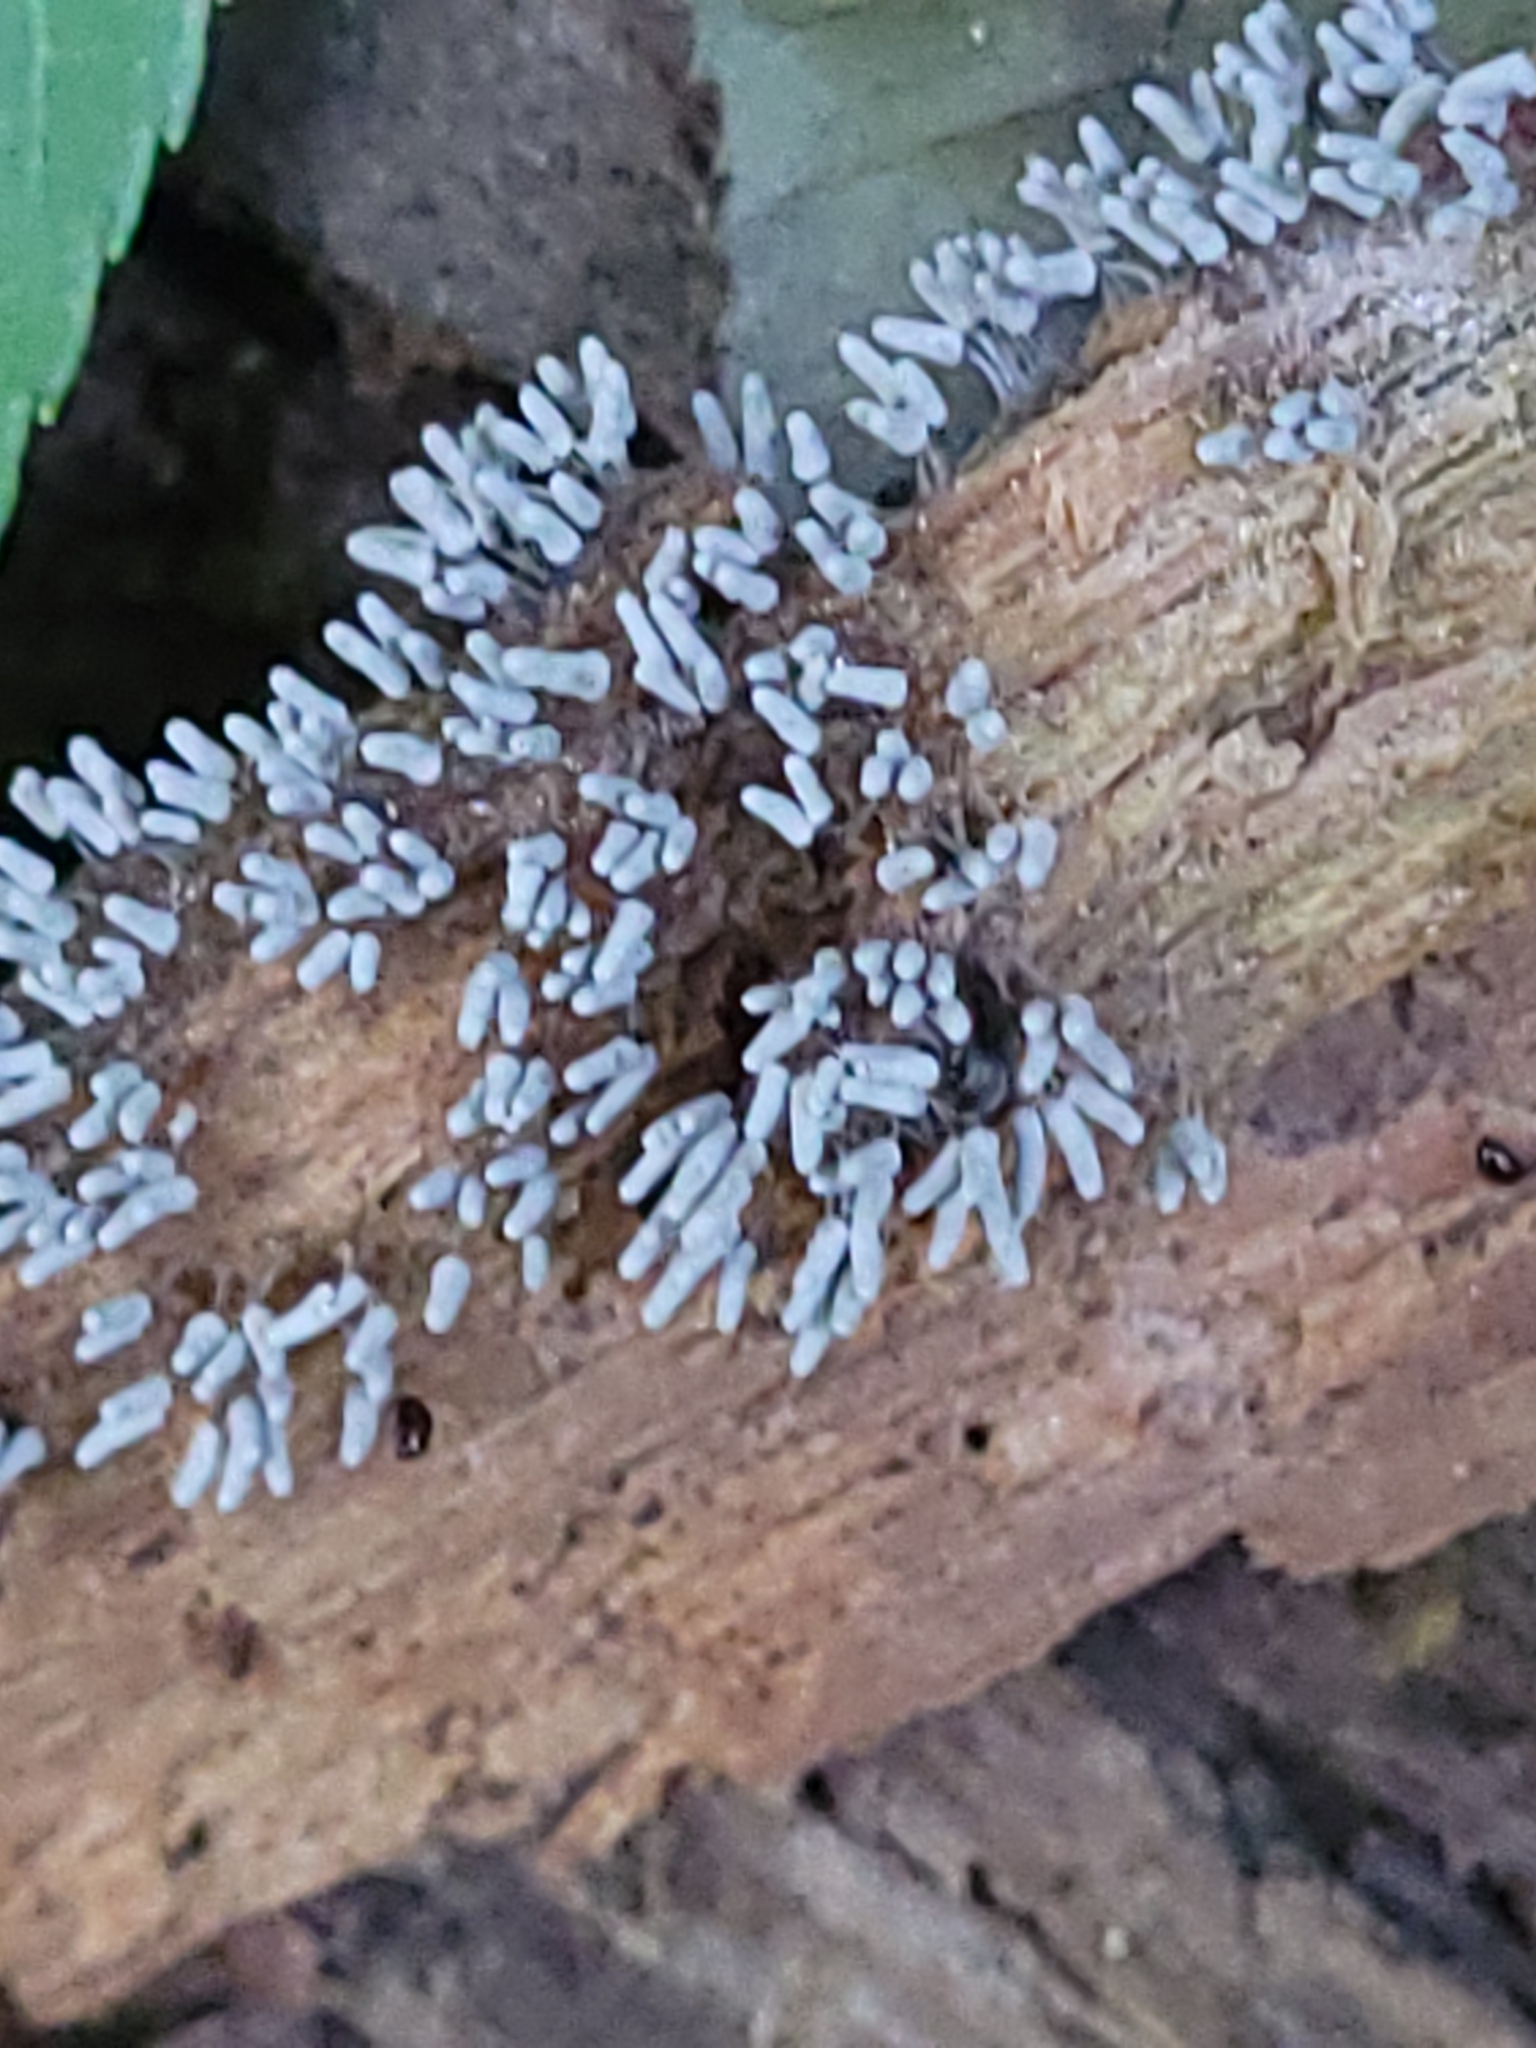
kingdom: Protozoa
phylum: Mycetozoa
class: Myxomycetes
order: Trichiales
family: Arcyriaceae
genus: Arcyria
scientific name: Arcyria cinerea
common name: White carnival candy slime mold
